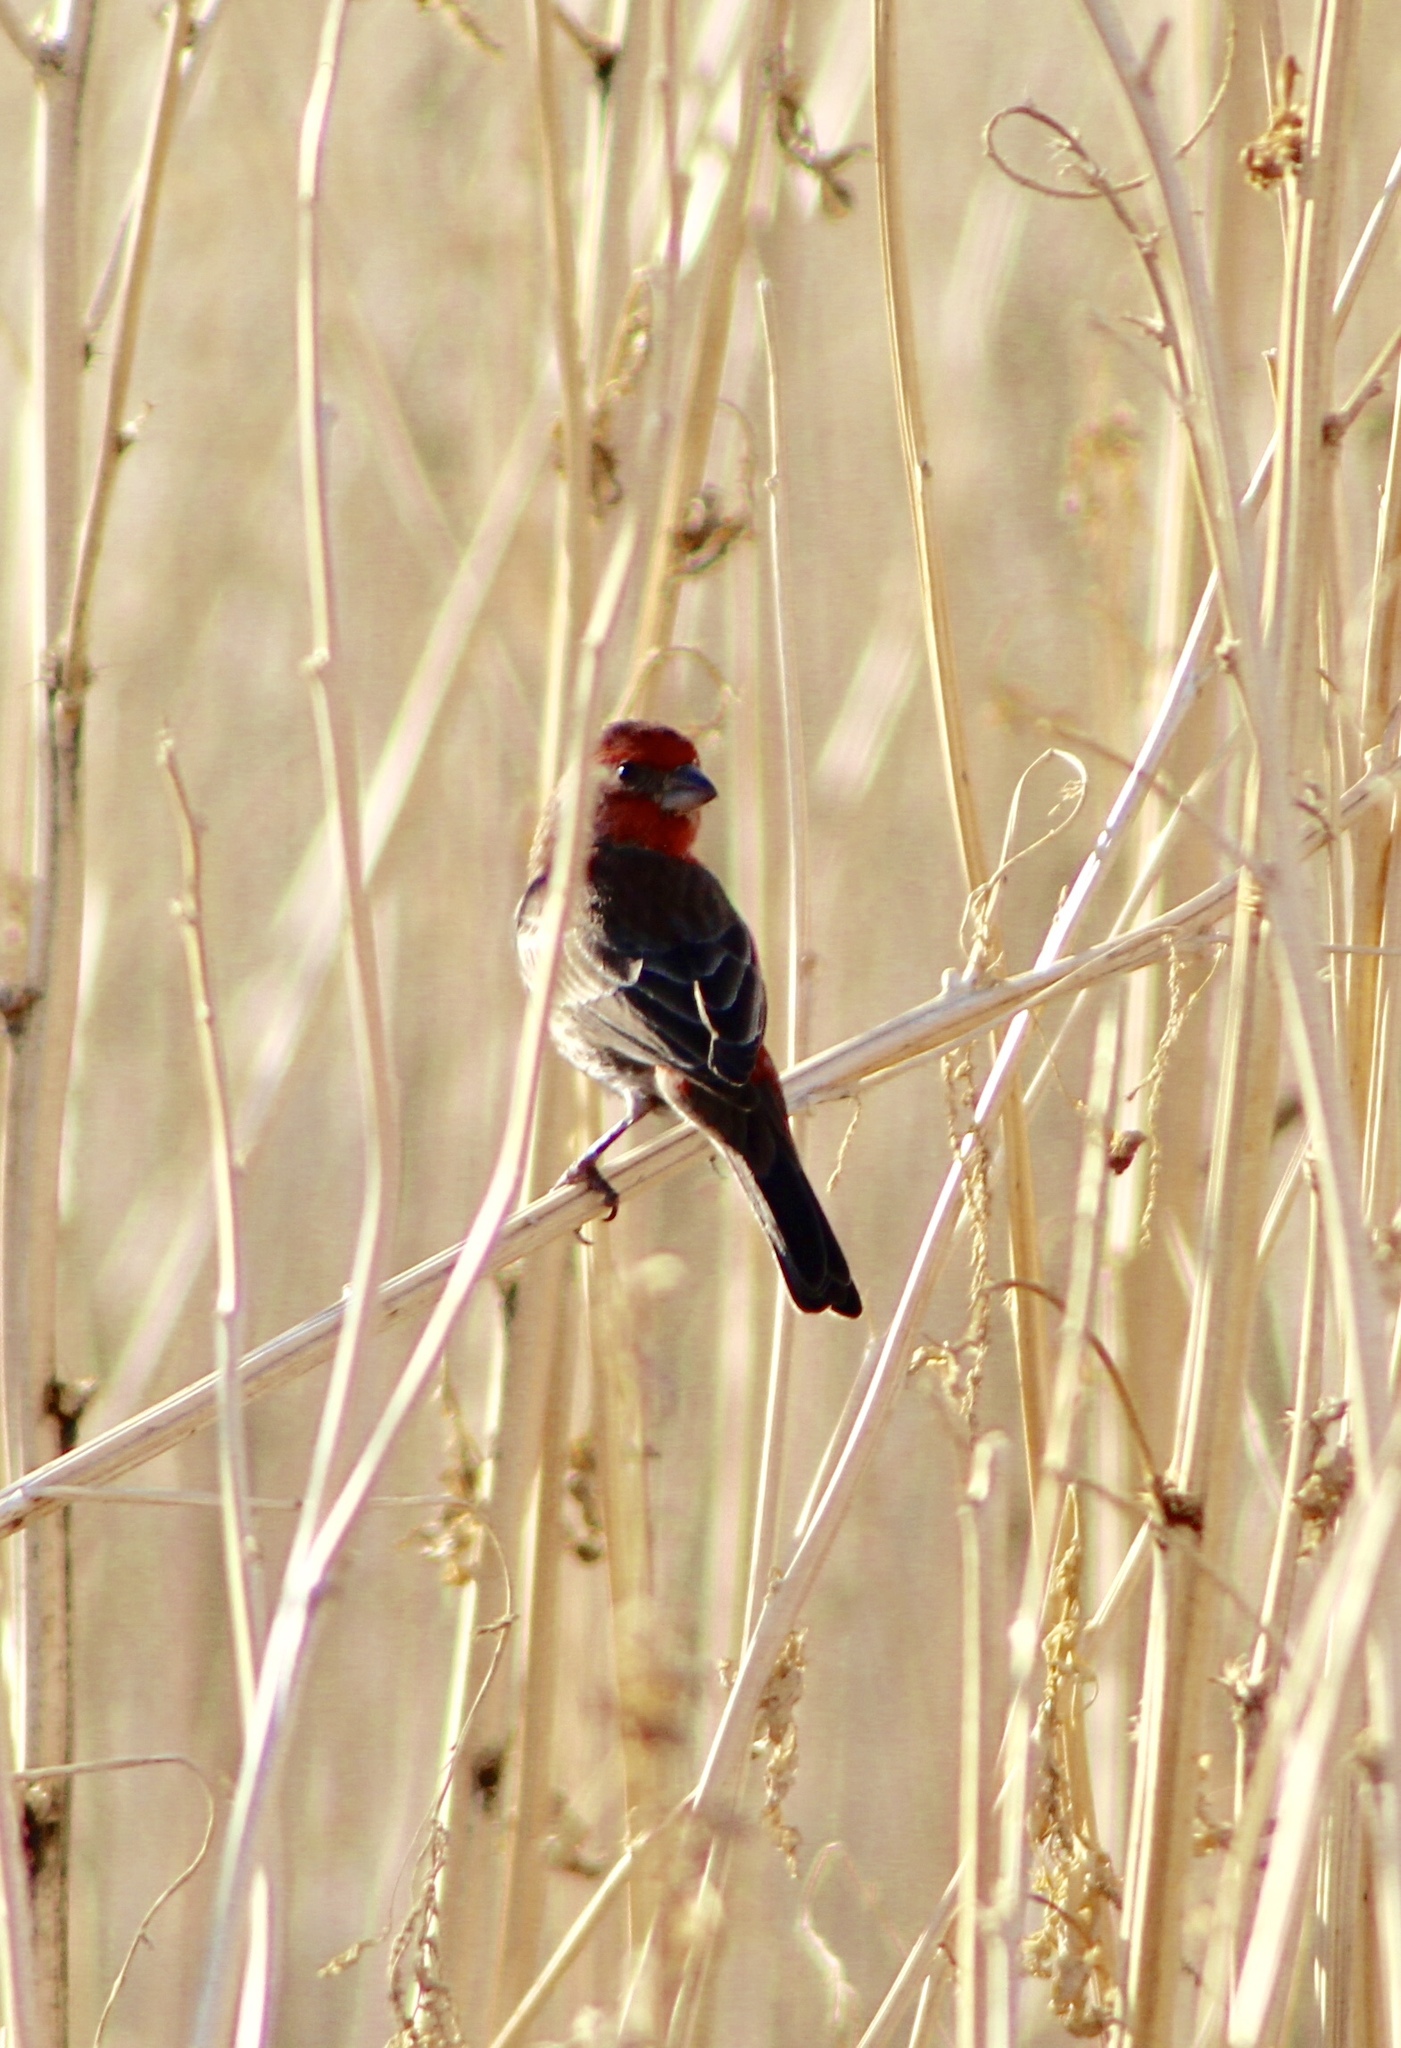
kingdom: Animalia
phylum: Chordata
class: Aves
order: Passeriformes
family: Fringillidae
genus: Haemorhous
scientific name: Haemorhous mexicanus
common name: House finch
